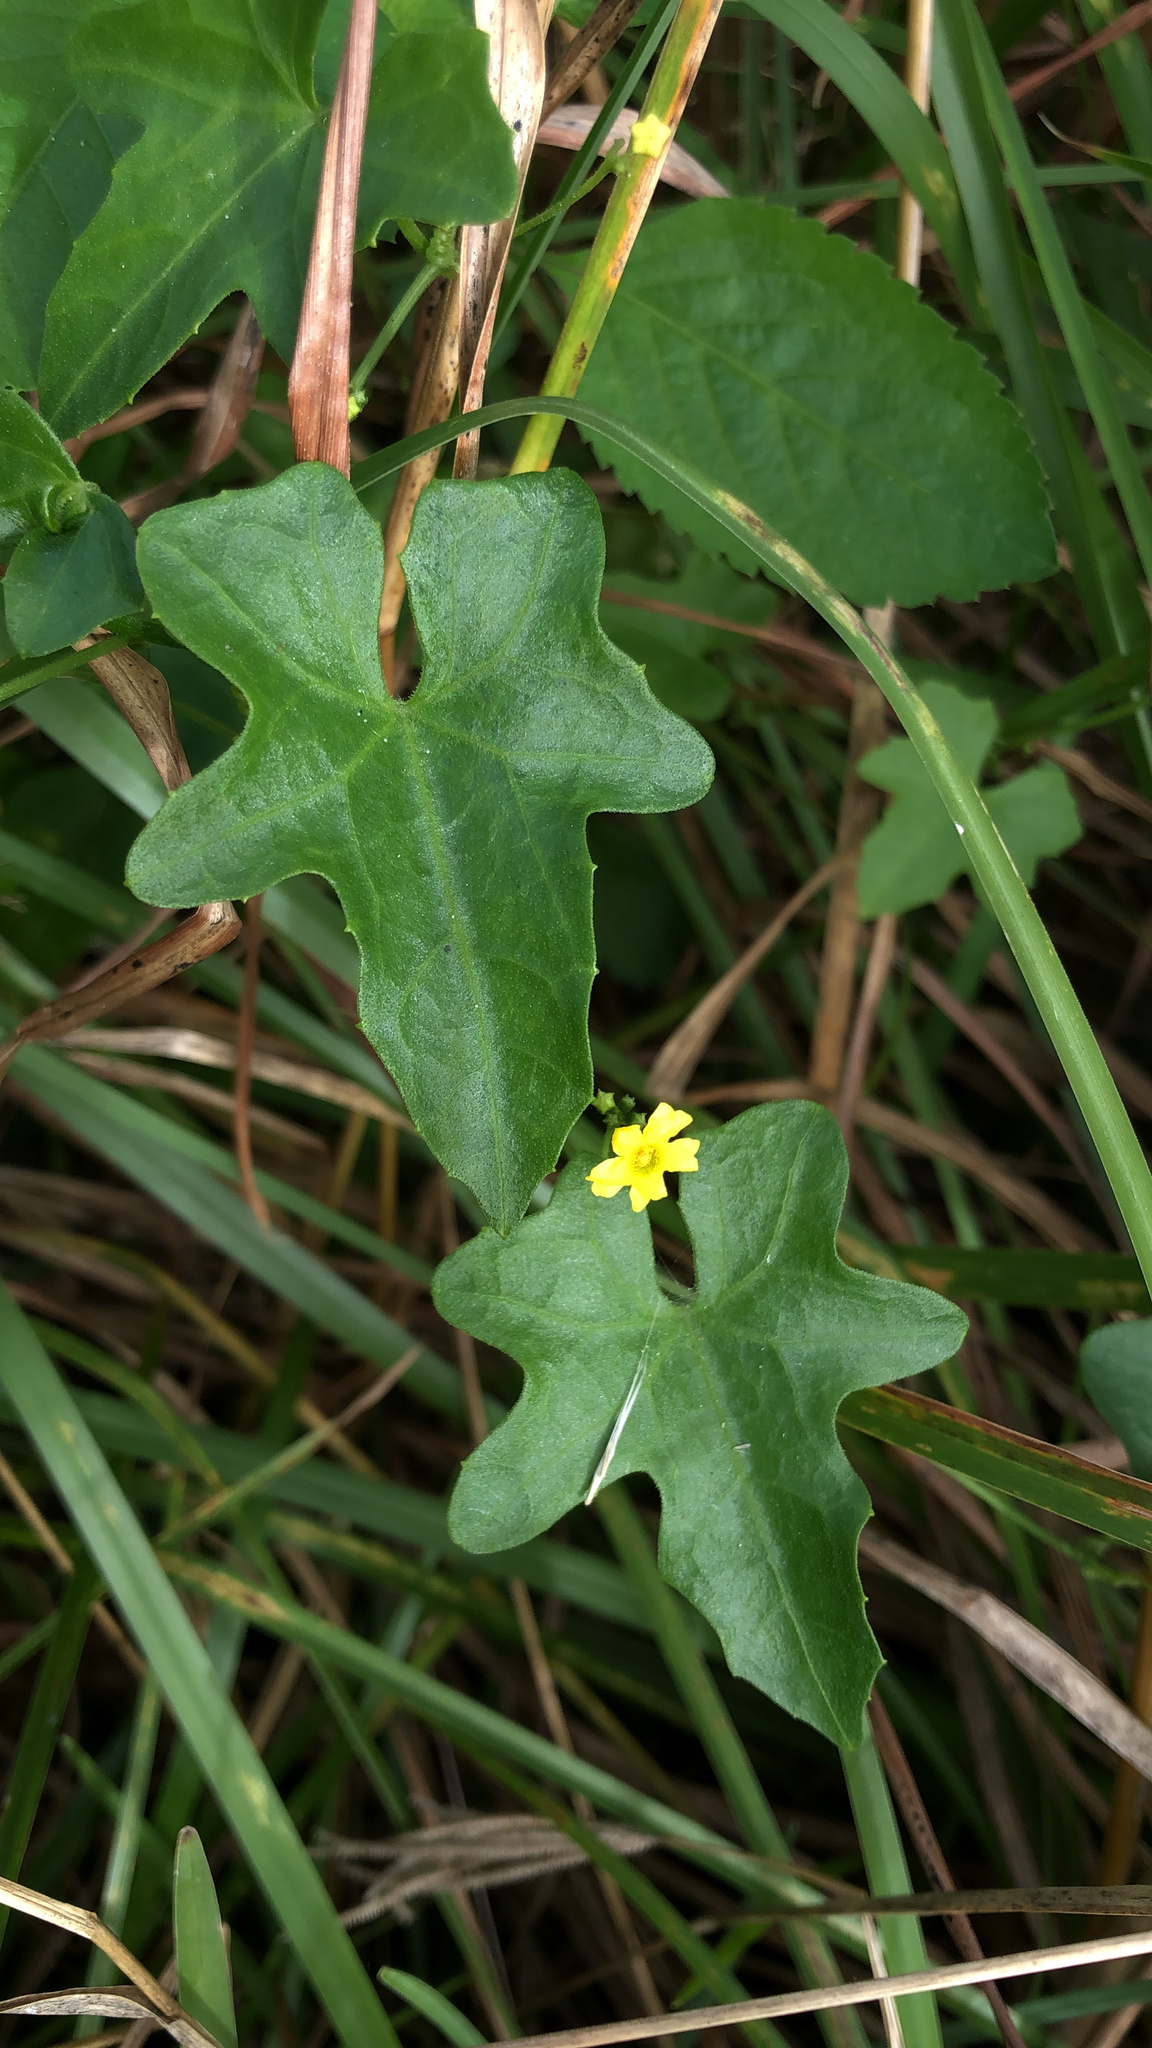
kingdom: Plantae
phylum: Tracheophyta
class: Magnoliopsida
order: Cucurbitales
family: Cucurbitaceae
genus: Melothria
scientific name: Melothria pendula
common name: Creeping-cucumber
